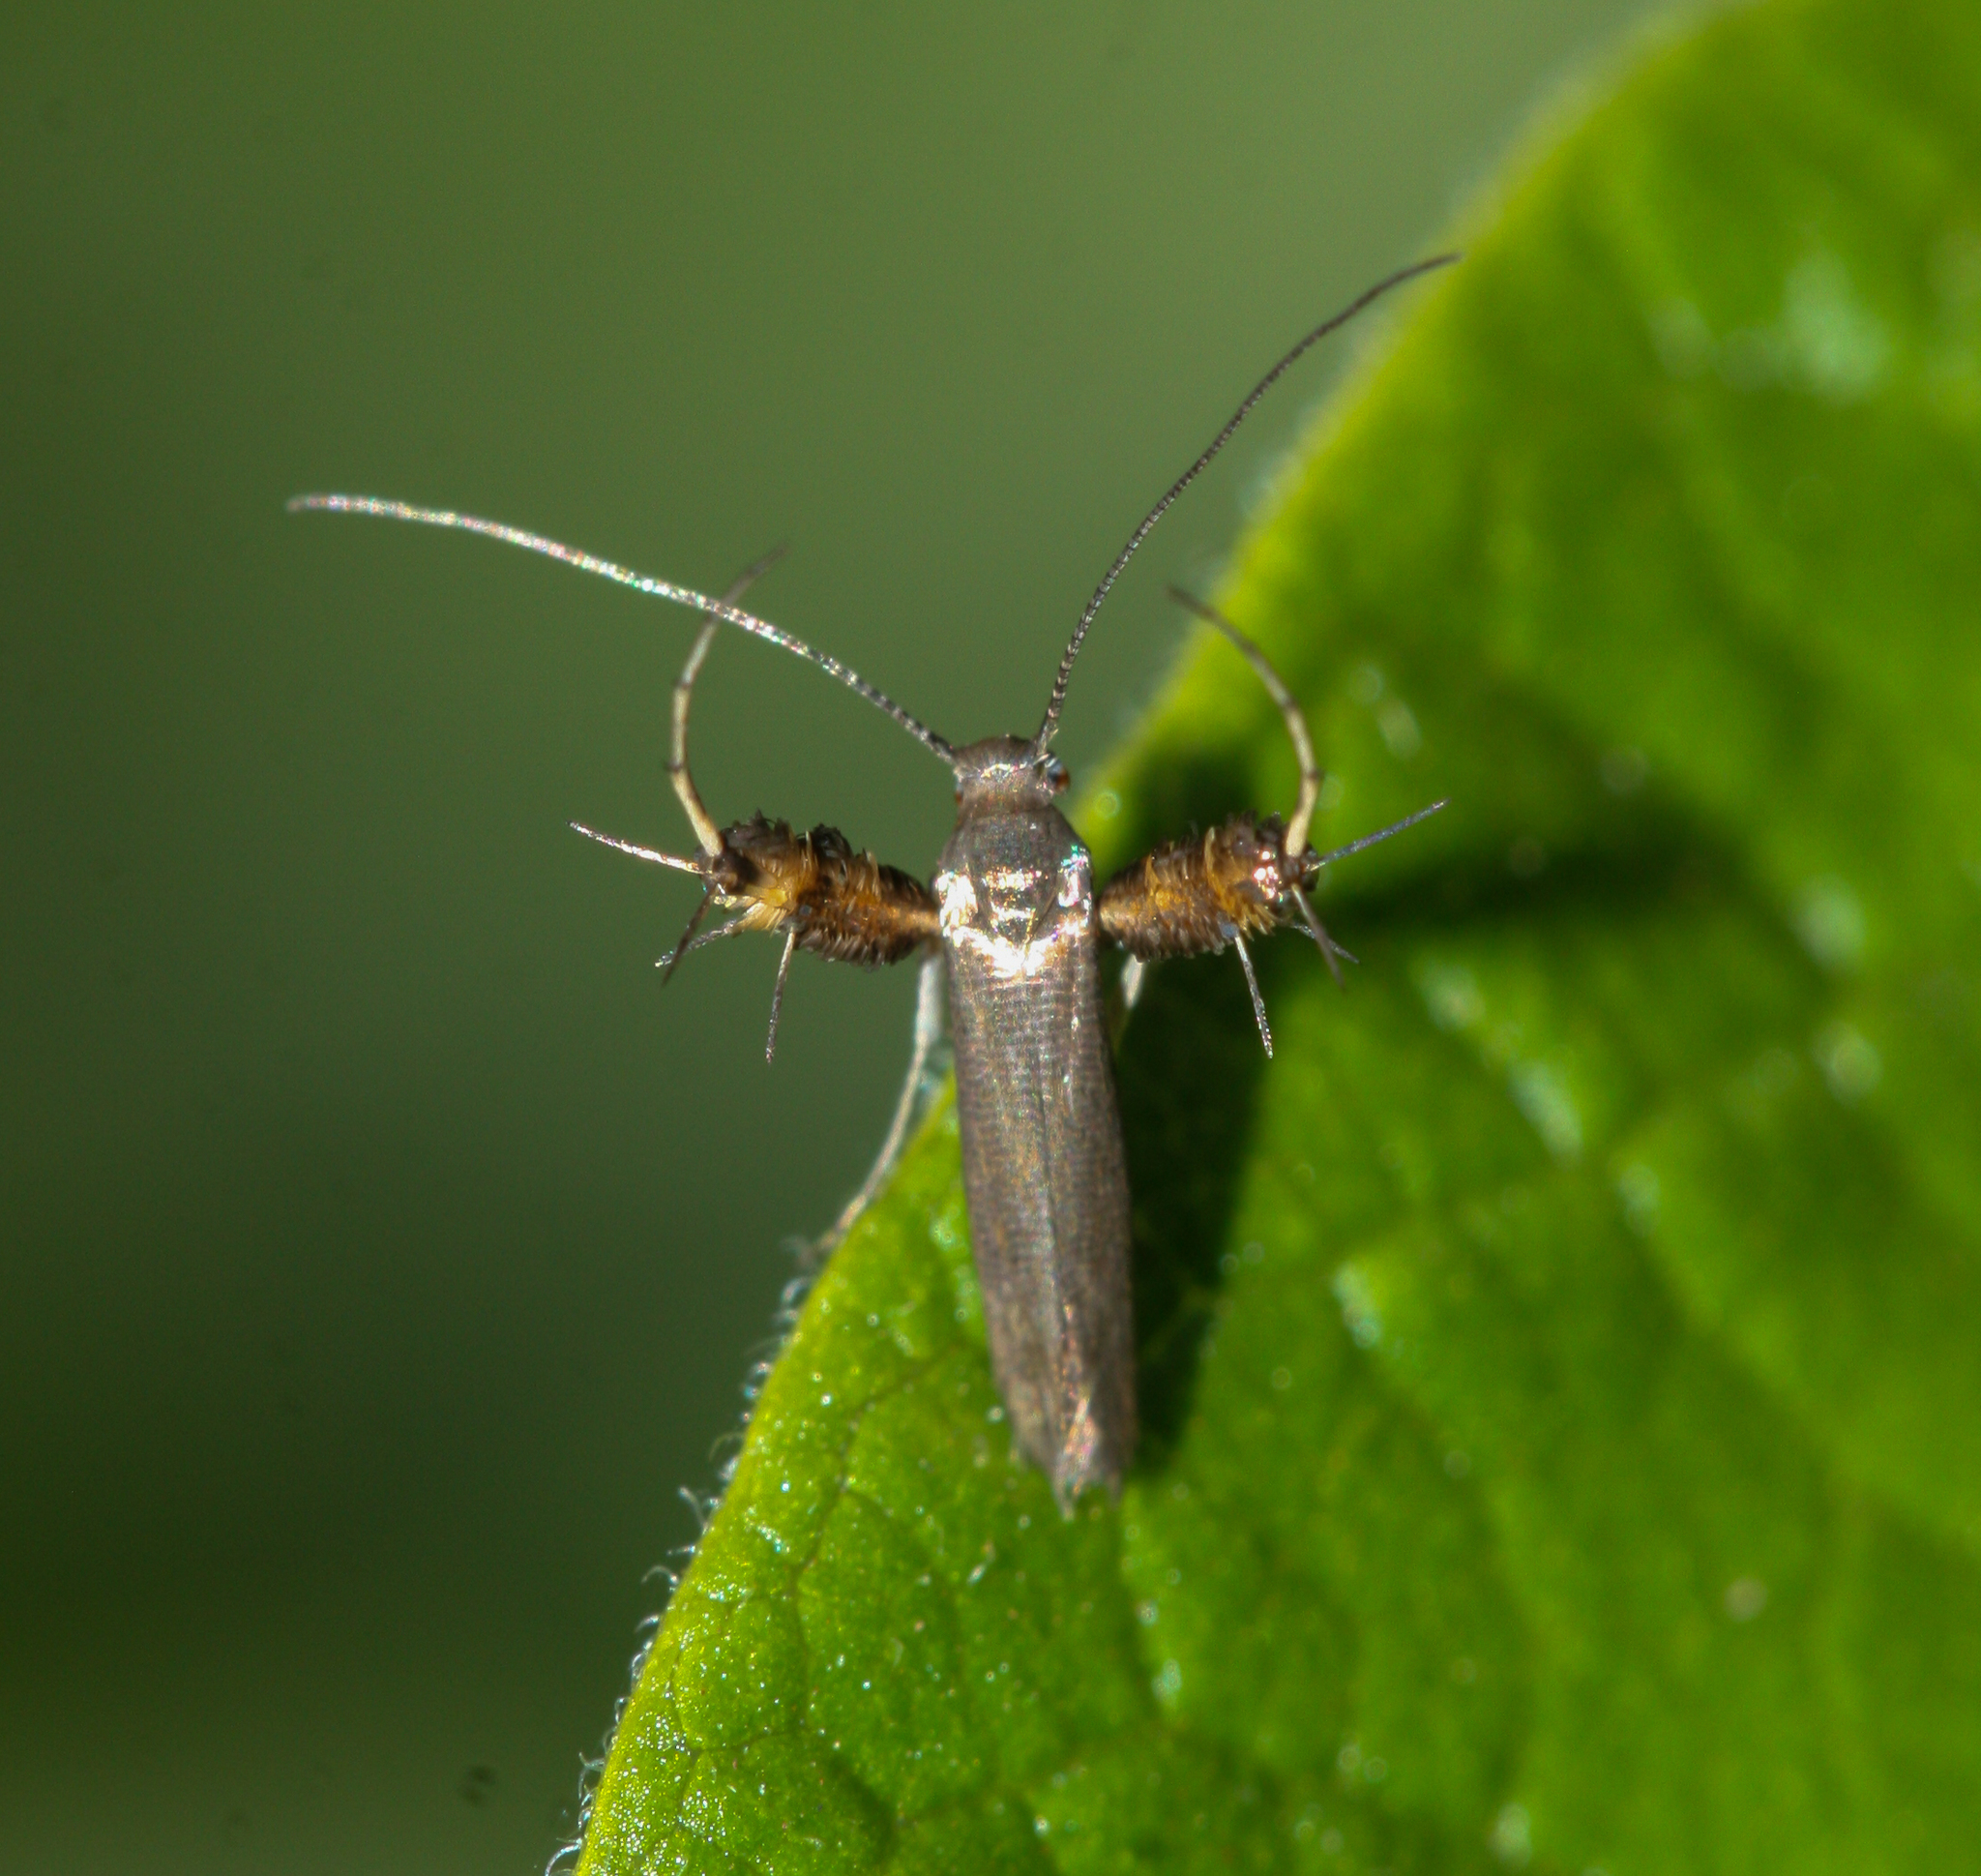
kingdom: Animalia
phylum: Arthropoda
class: Insecta
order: Lepidoptera
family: Heliodinidae
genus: Heliodines
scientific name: Heliodines
